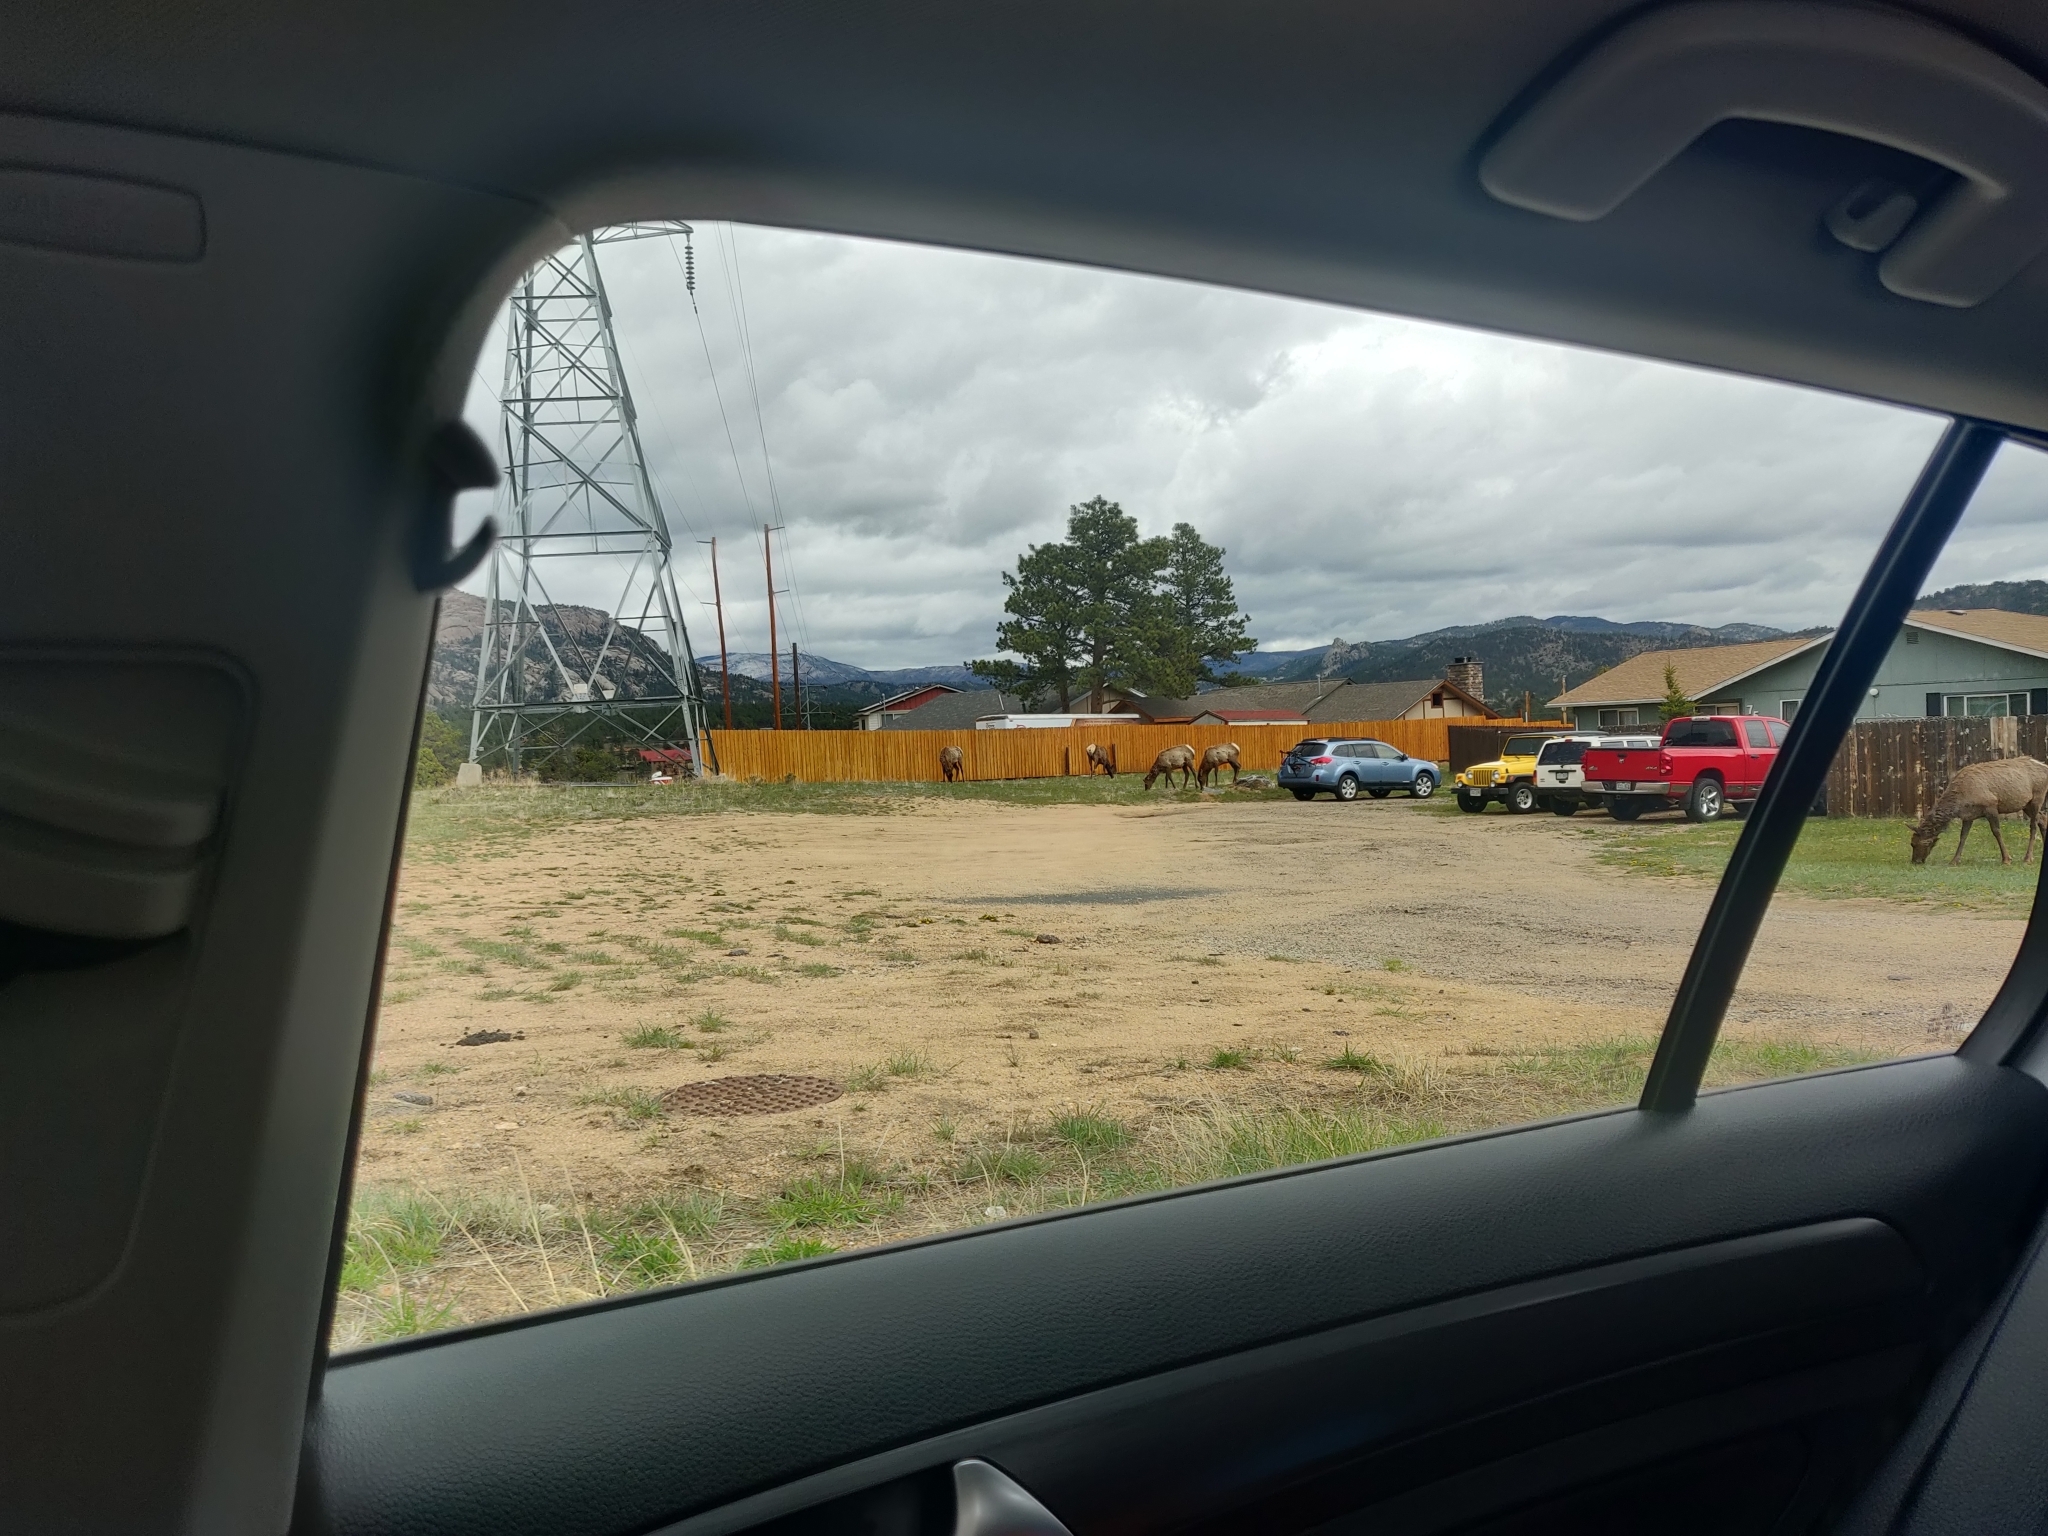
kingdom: Animalia
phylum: Chordata
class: Mammalia
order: Artiodactyla
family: Cervidae
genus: Cervus
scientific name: Cervus elaphus
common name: Red deer
